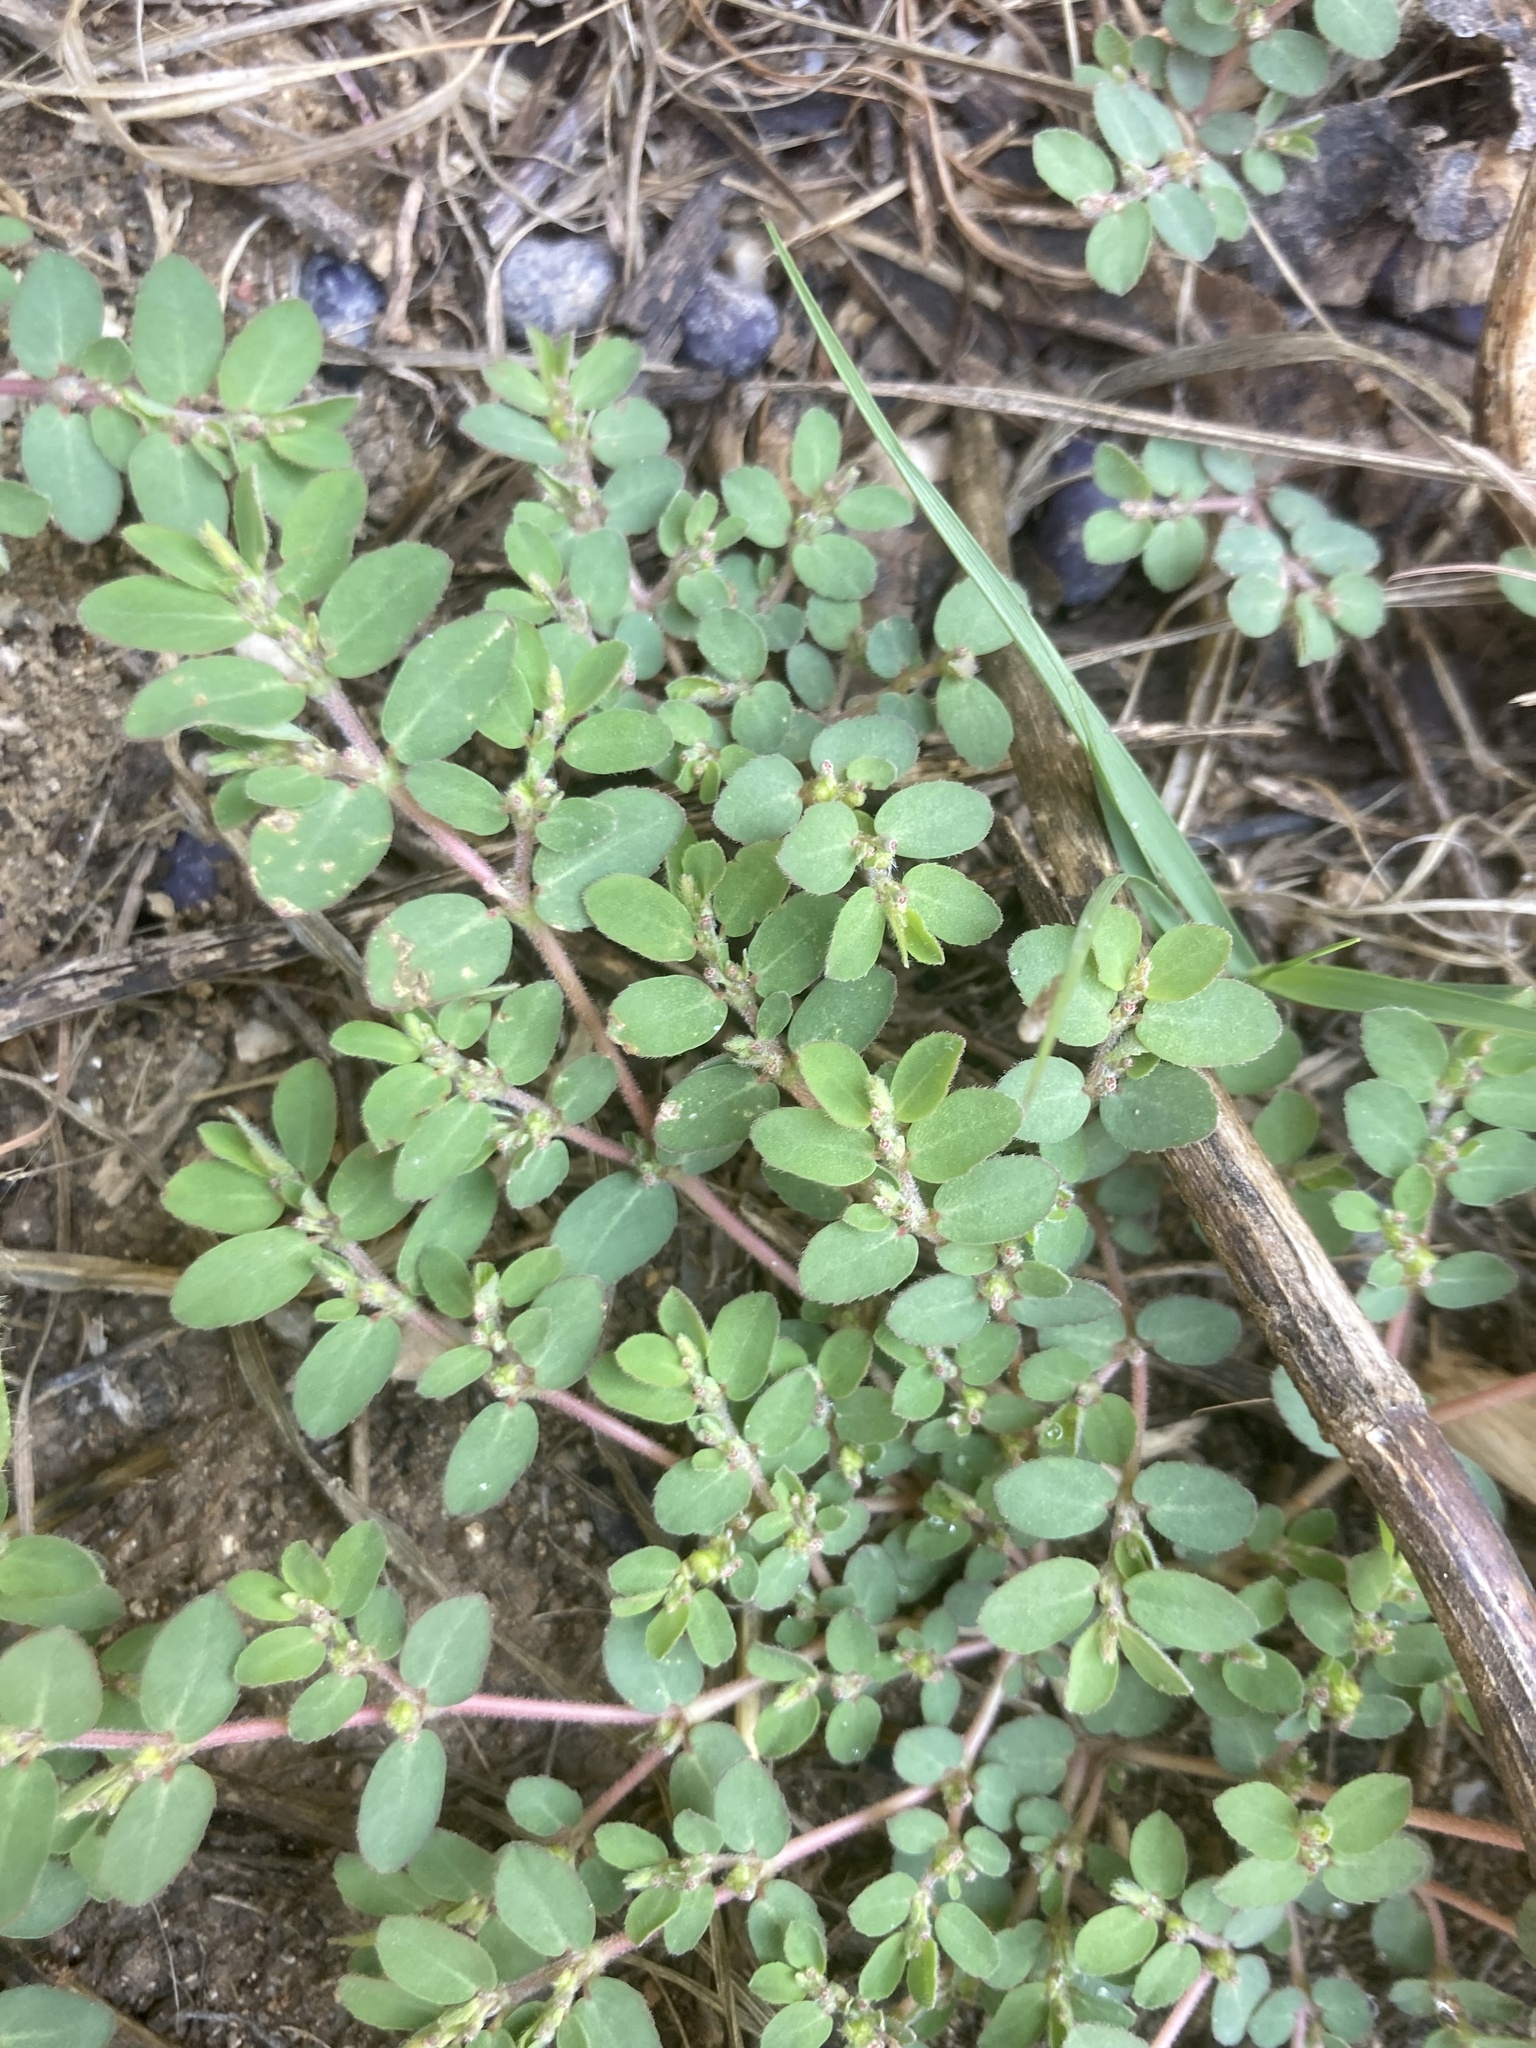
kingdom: Plantae
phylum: Tracheophyta
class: Magnoliopsida
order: Malpighiales
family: Euphorbiaceae
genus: Euphorbia
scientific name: Euphorbia prostrata
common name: Prostrate sandmat
